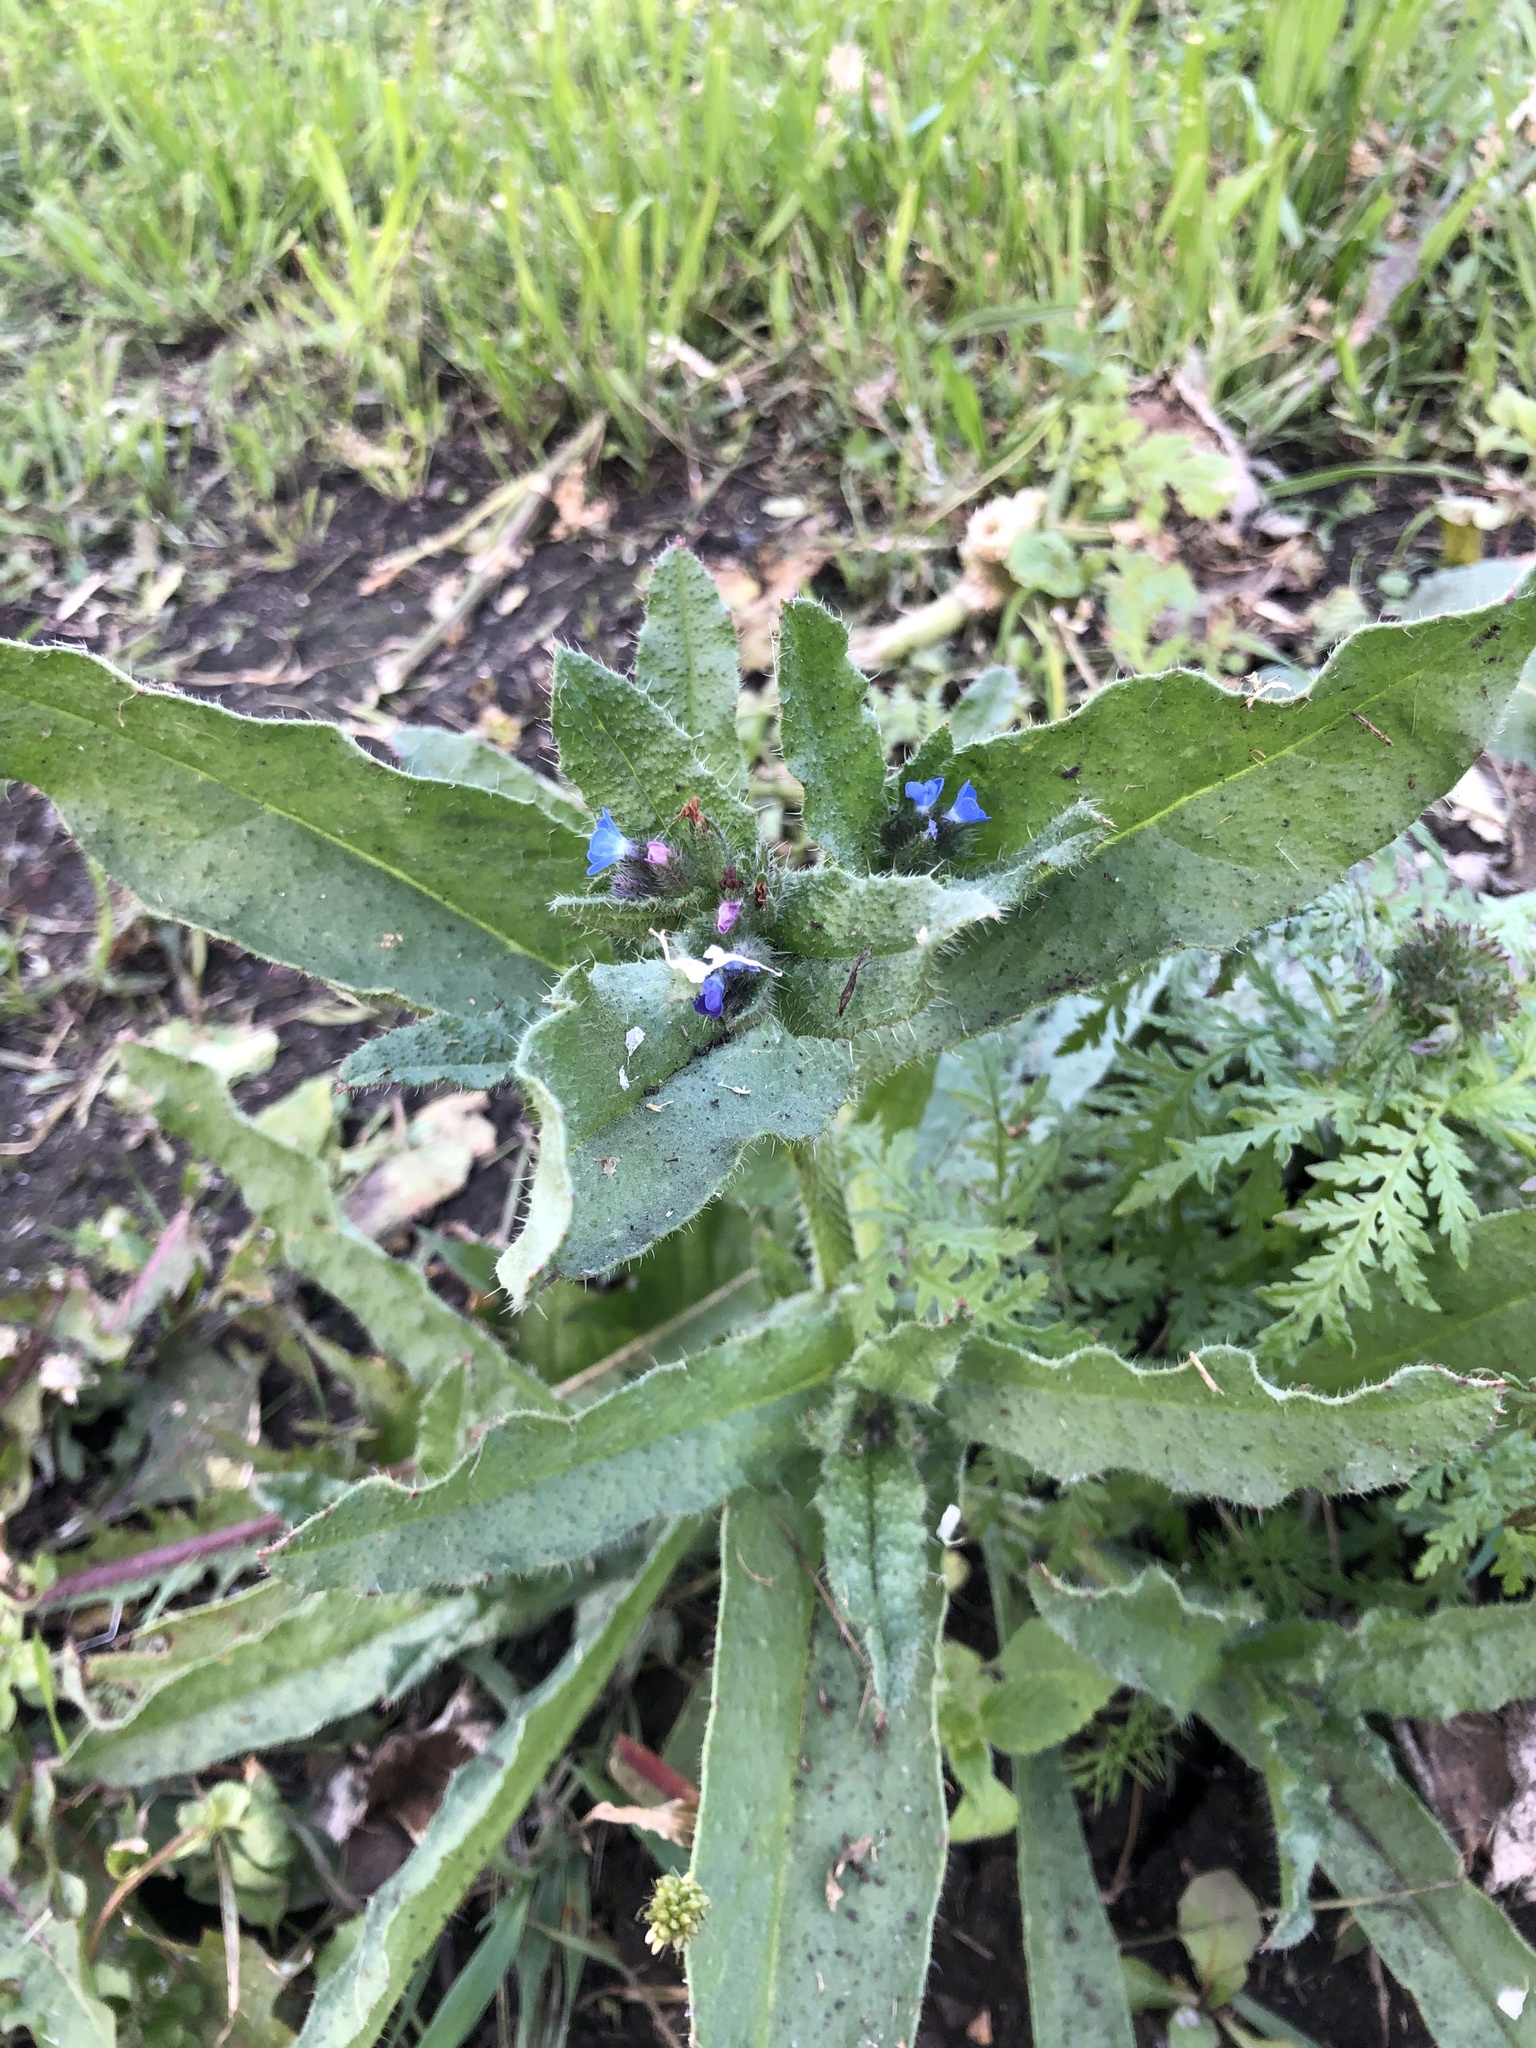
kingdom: Plantae
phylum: Tracheophyta
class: Magnoliopsida
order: Boraginales
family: Boraginaceae
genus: Lycopsis
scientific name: Lycopsis arvensis
